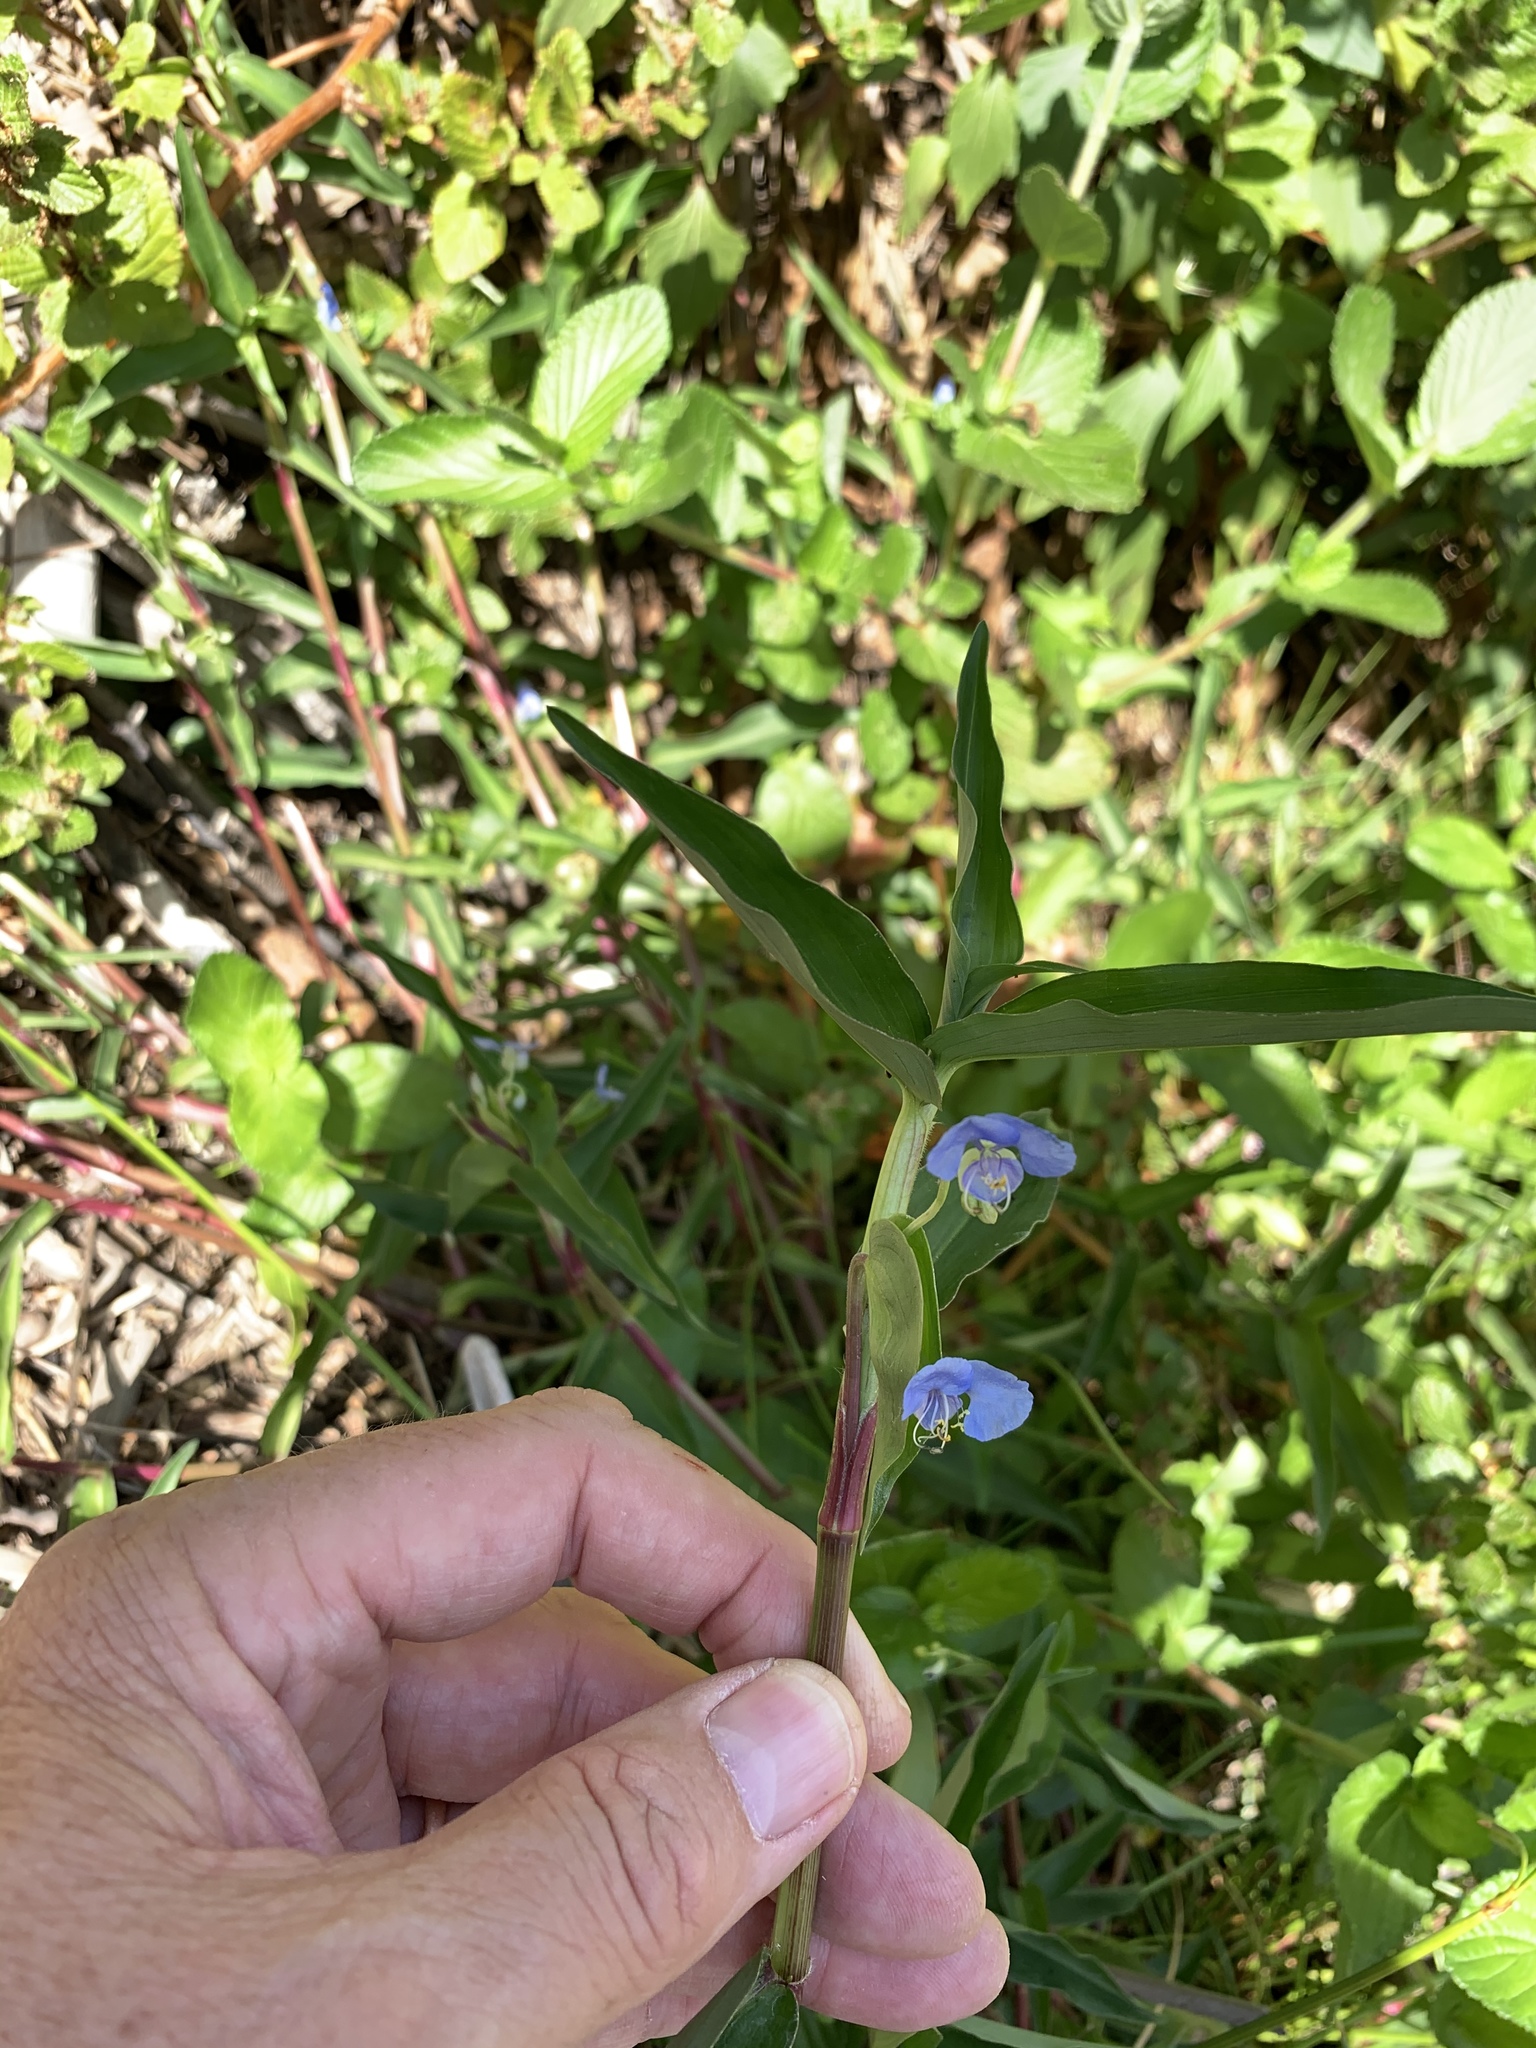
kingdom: Plantae
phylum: Tracheophyta
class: Liliopsida
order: Commelinales
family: Commelinaceae
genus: Commelina
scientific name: Commelina diffusa
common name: Climbing dayflower
